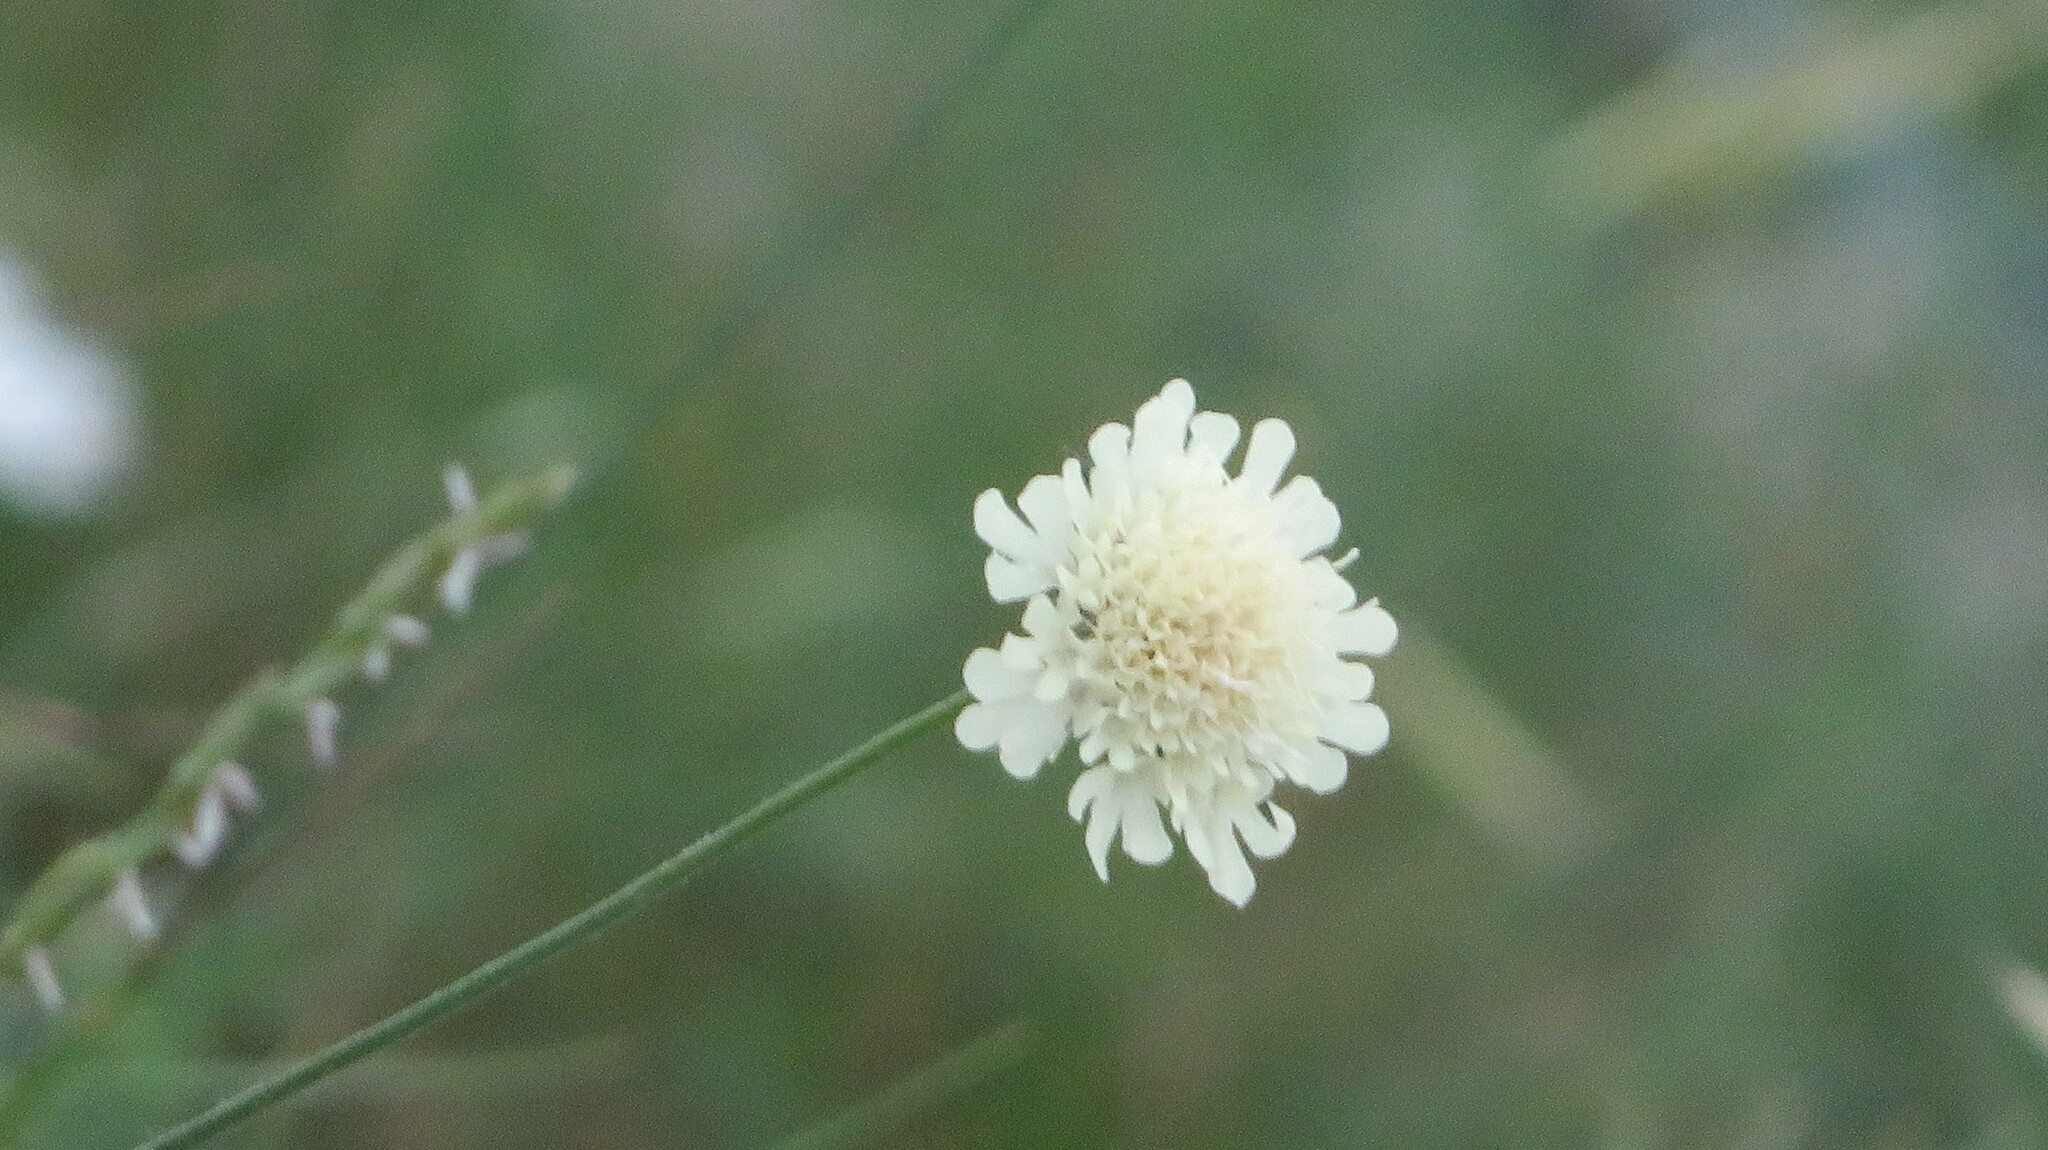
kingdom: Plantae
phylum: Tracheophyta
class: Magnoliopsida
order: Dipsacales
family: Caprifoliaceae
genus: Scabiosa
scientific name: Scabiosa ochroleuca
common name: Cream pincushions
